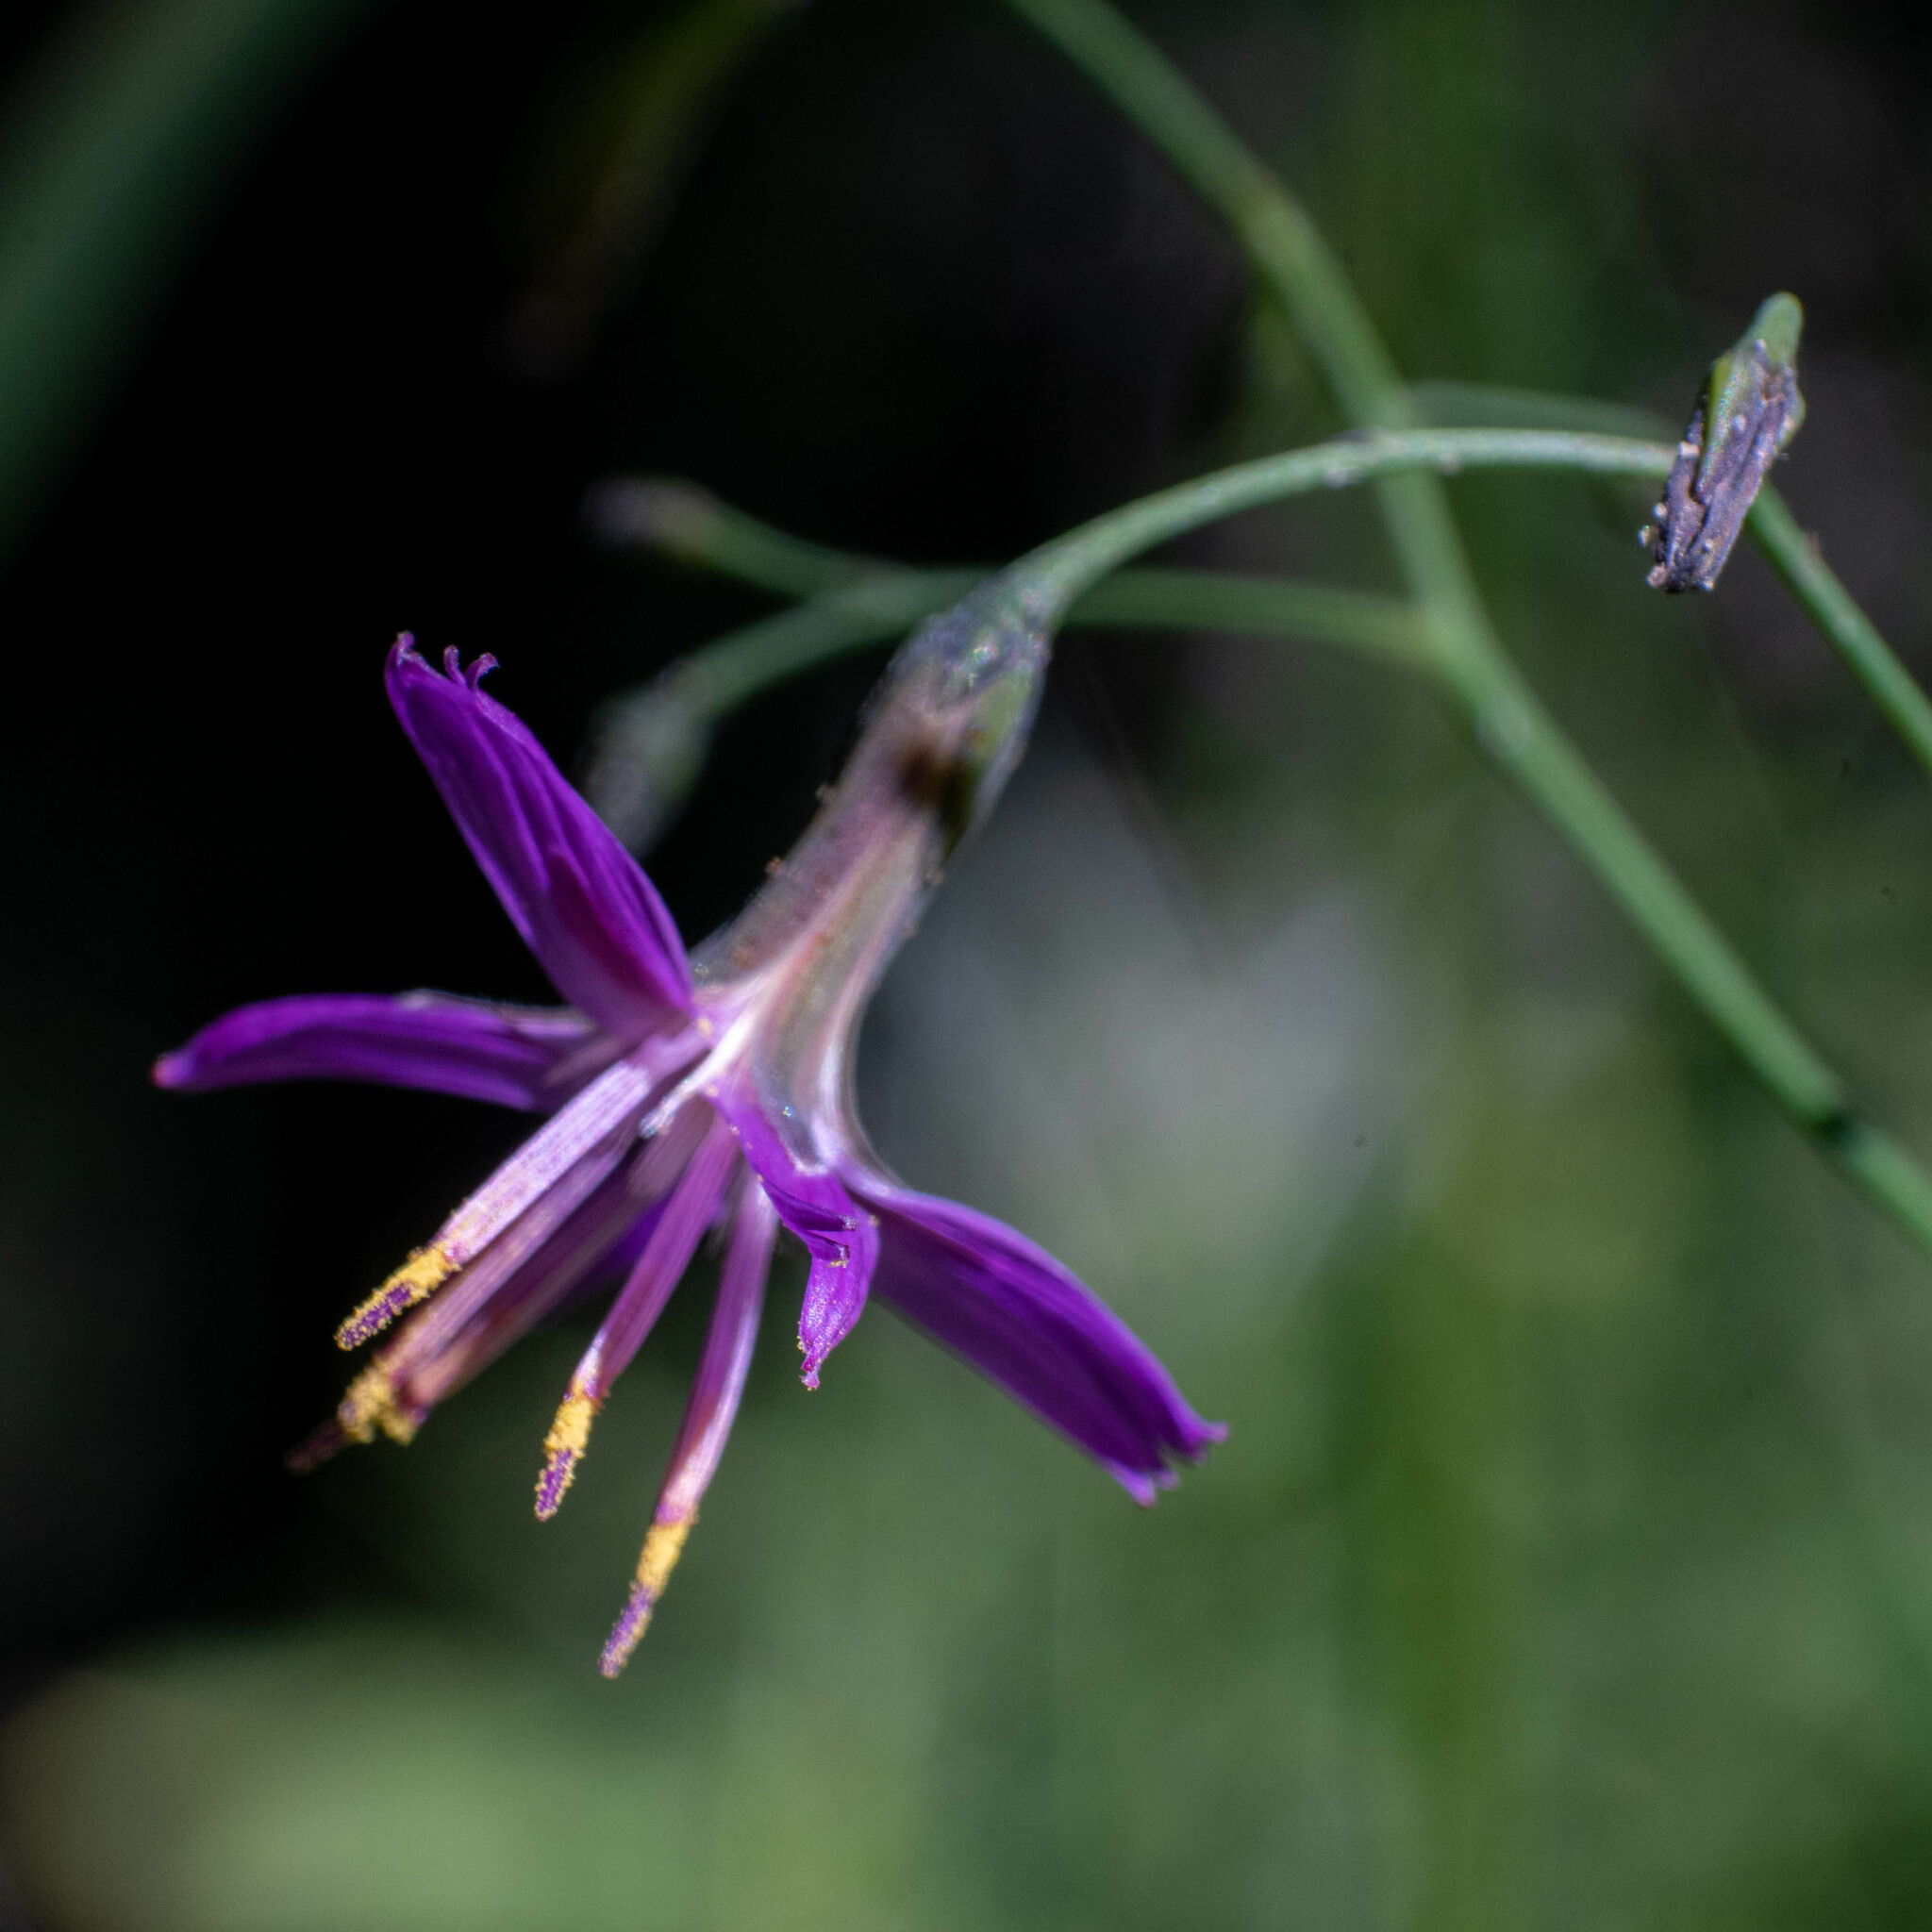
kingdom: Plantae
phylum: Tracheophyta
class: Magnoliopsida
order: Asterales
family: Asteraceae
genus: Prenanthes
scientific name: Prenanthes purpurea
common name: Purple lettuce
